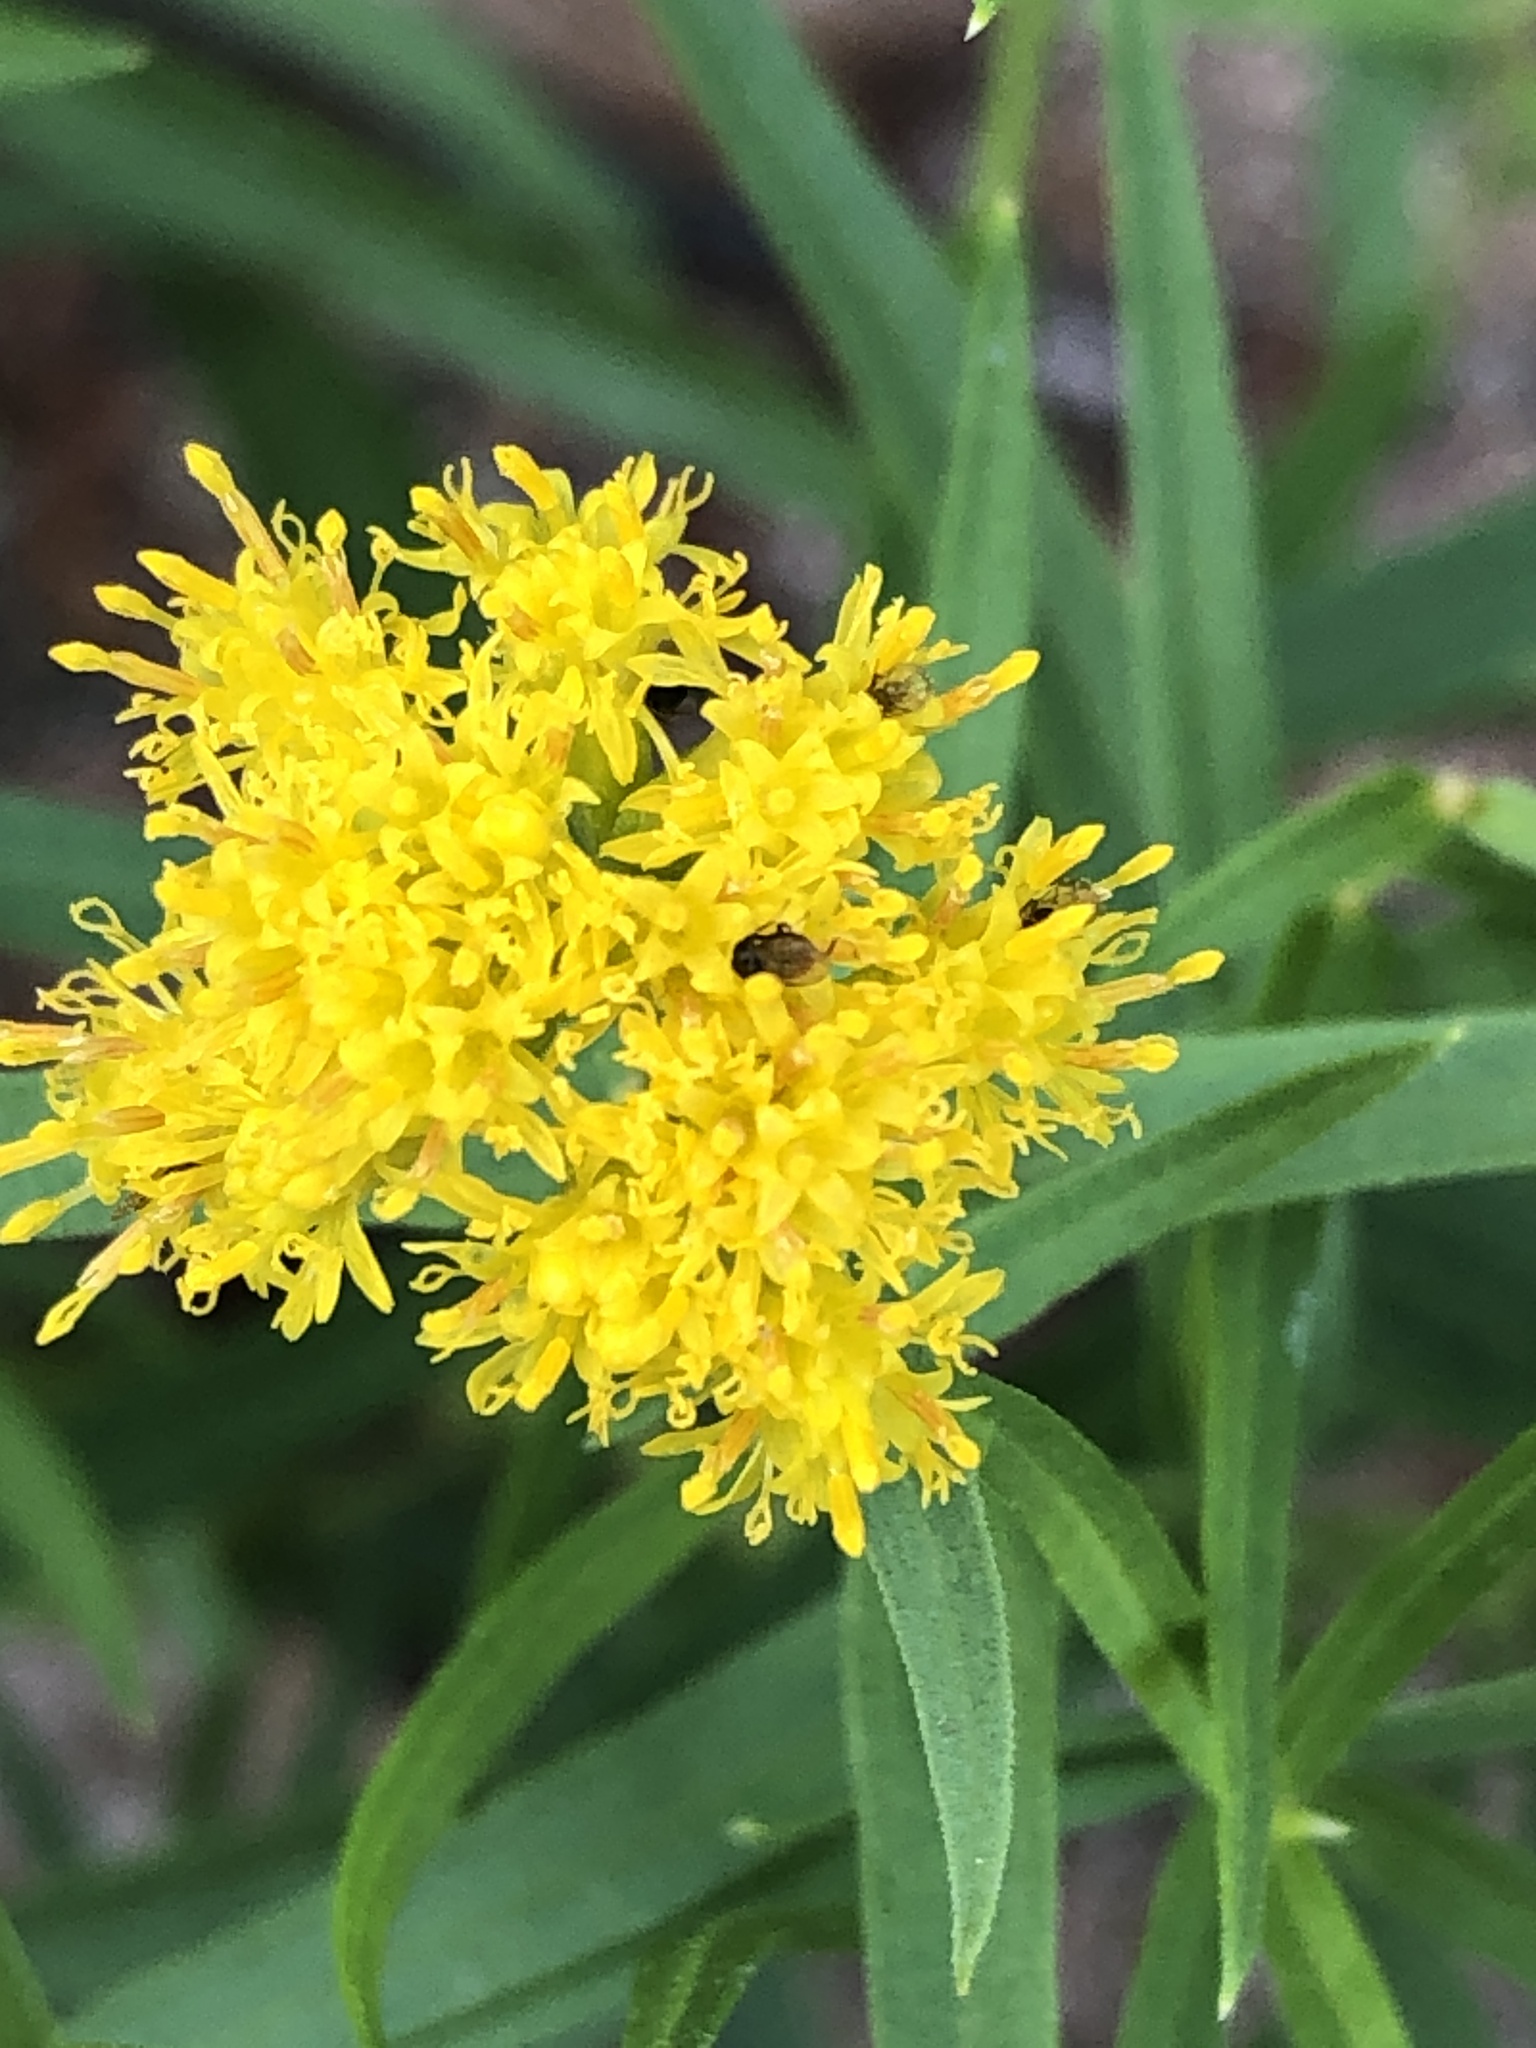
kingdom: Plantae
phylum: Tracheophyta
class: Magnoliopsida
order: Asterales
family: Asteraceae
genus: Euthamia
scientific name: Euthamia graminifolia
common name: Common goldentop
